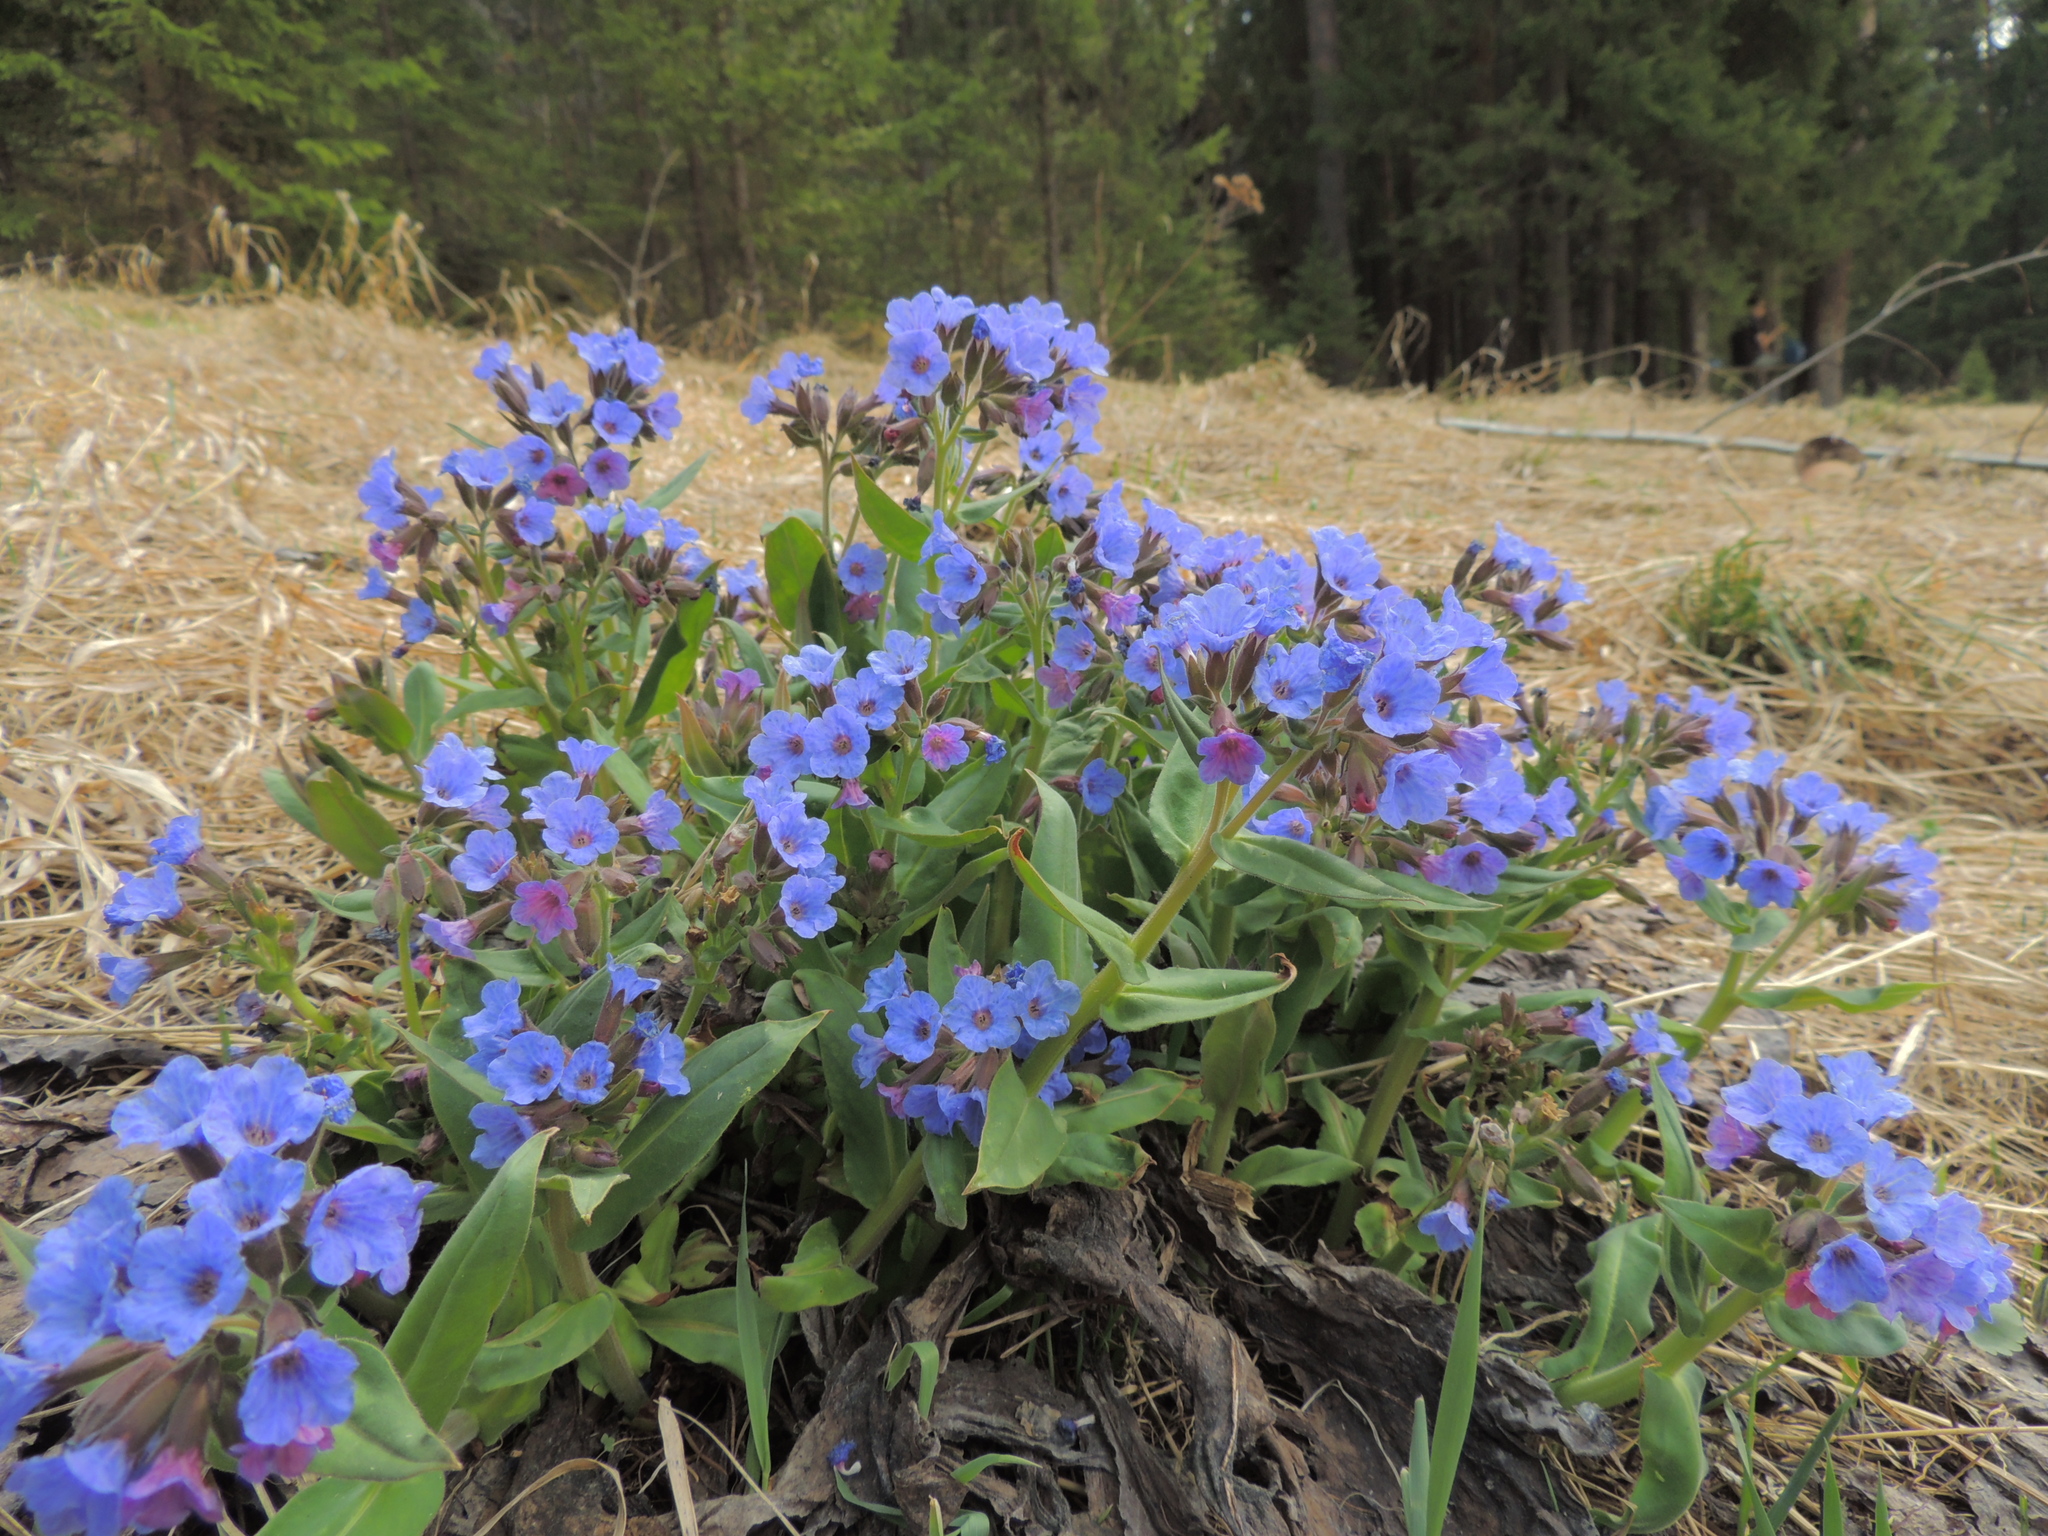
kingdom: Plantae
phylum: Tracheophyta
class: Magnoliopsida
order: Boraginales
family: Boraginaceae
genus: Pulmonaria
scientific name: Pulmonaria mollis
